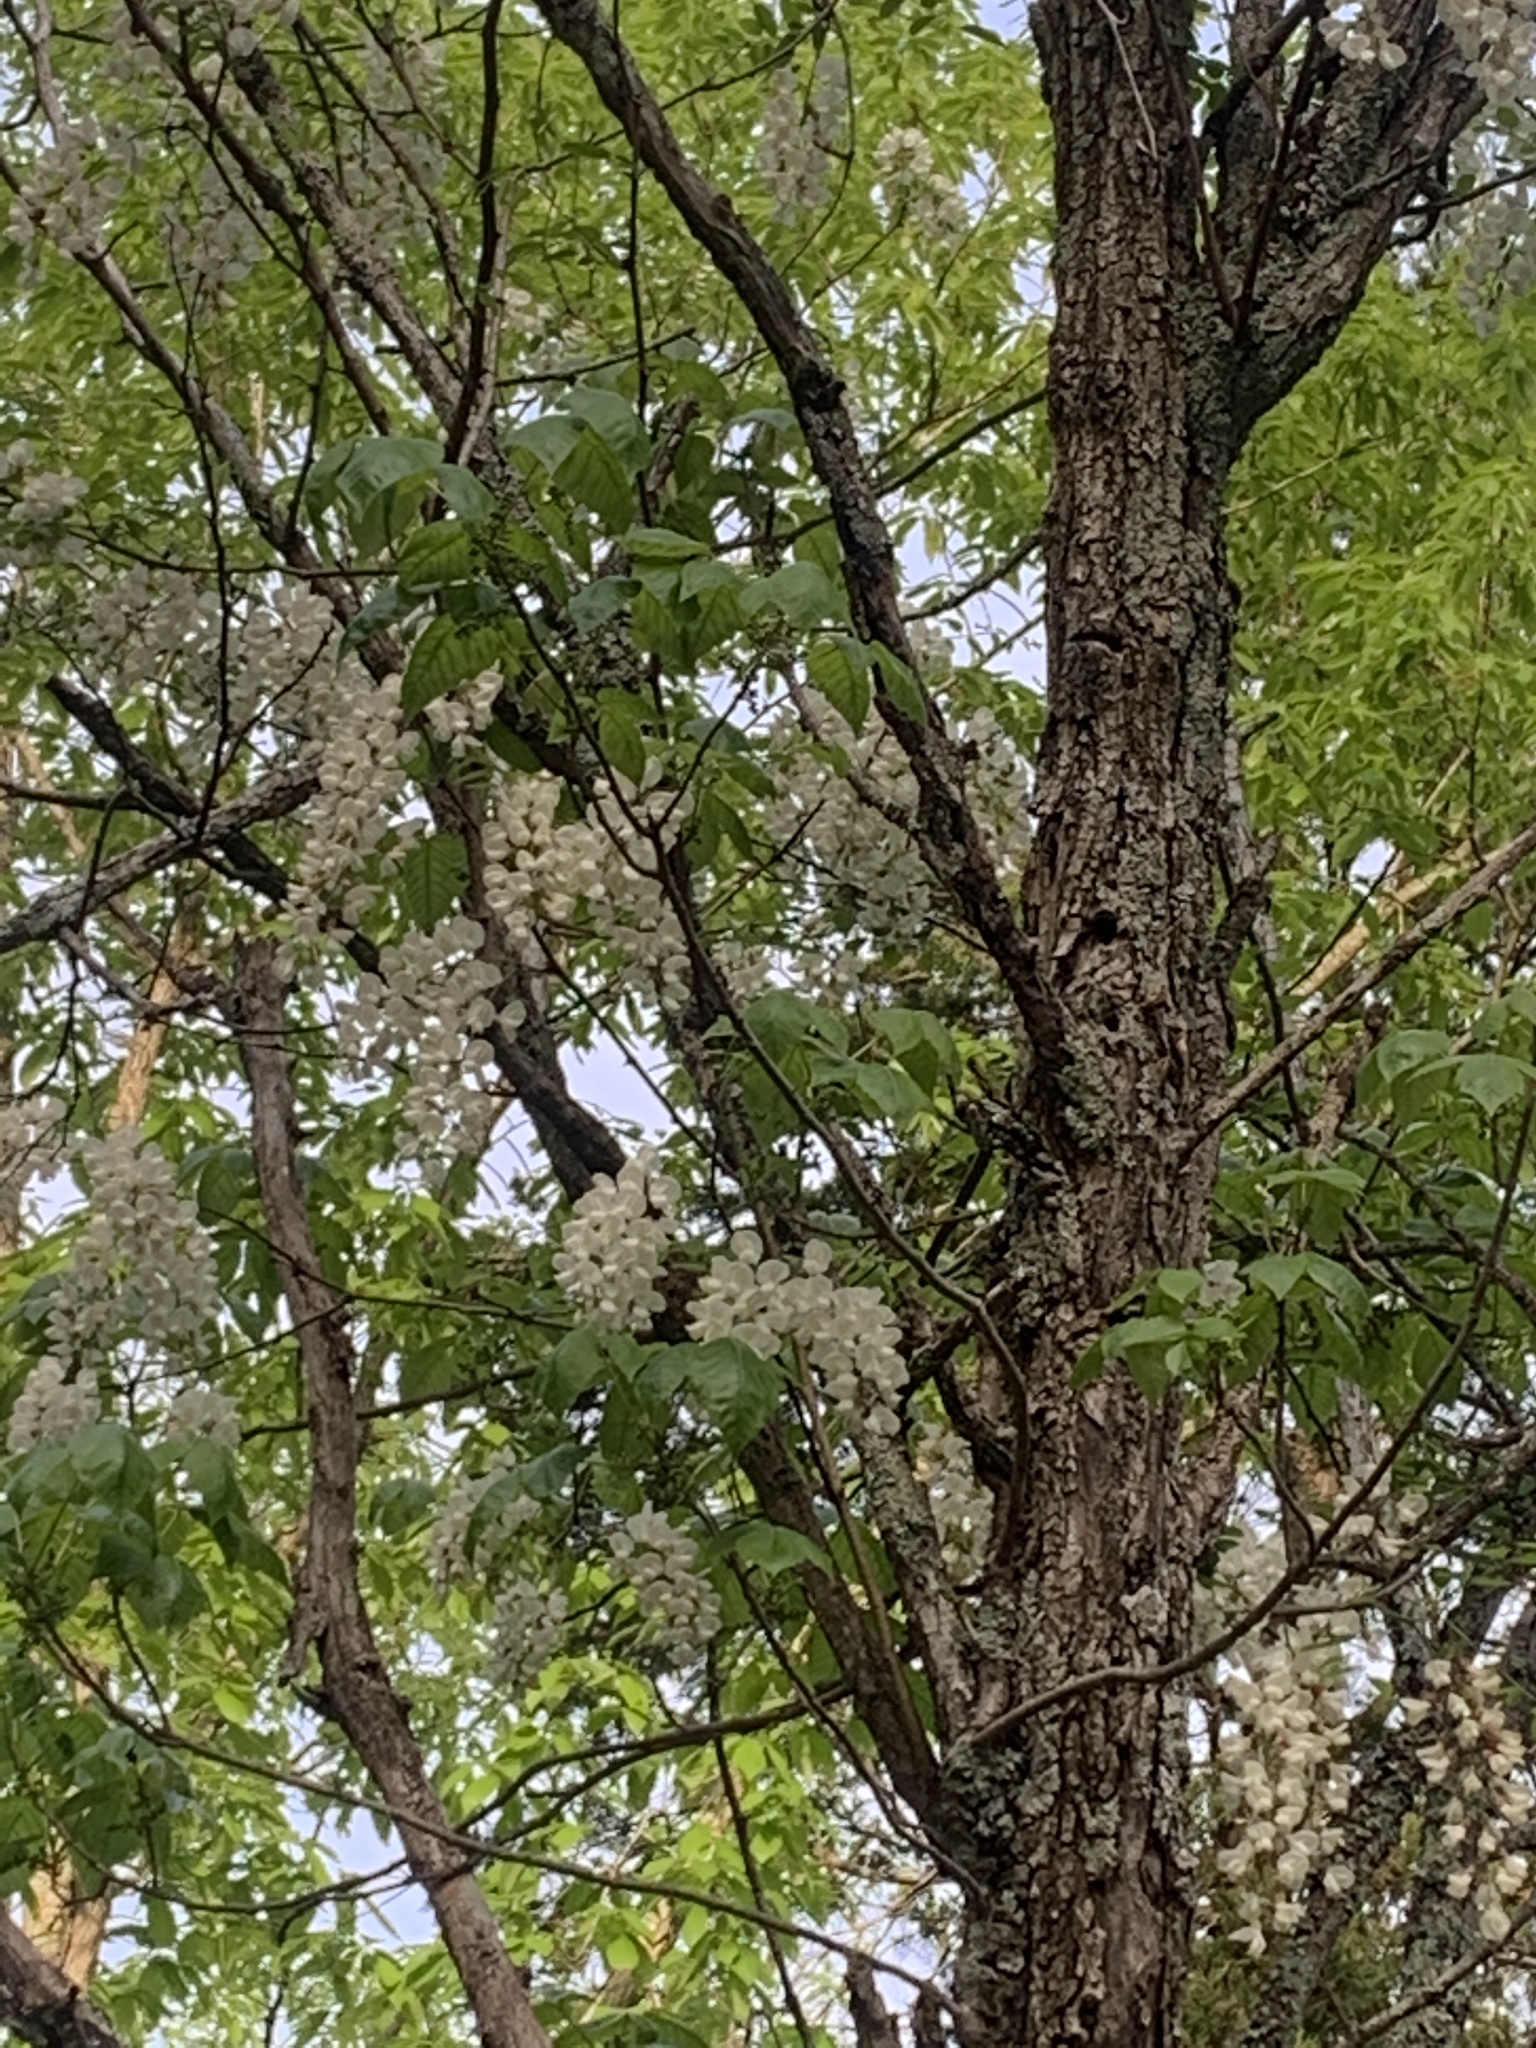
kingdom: Plantae
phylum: Tracheophyta
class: Magnoliopsida
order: Fabales
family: Fabaceae
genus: Robinia
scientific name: Robinia pseudoacacia
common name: Black locust
